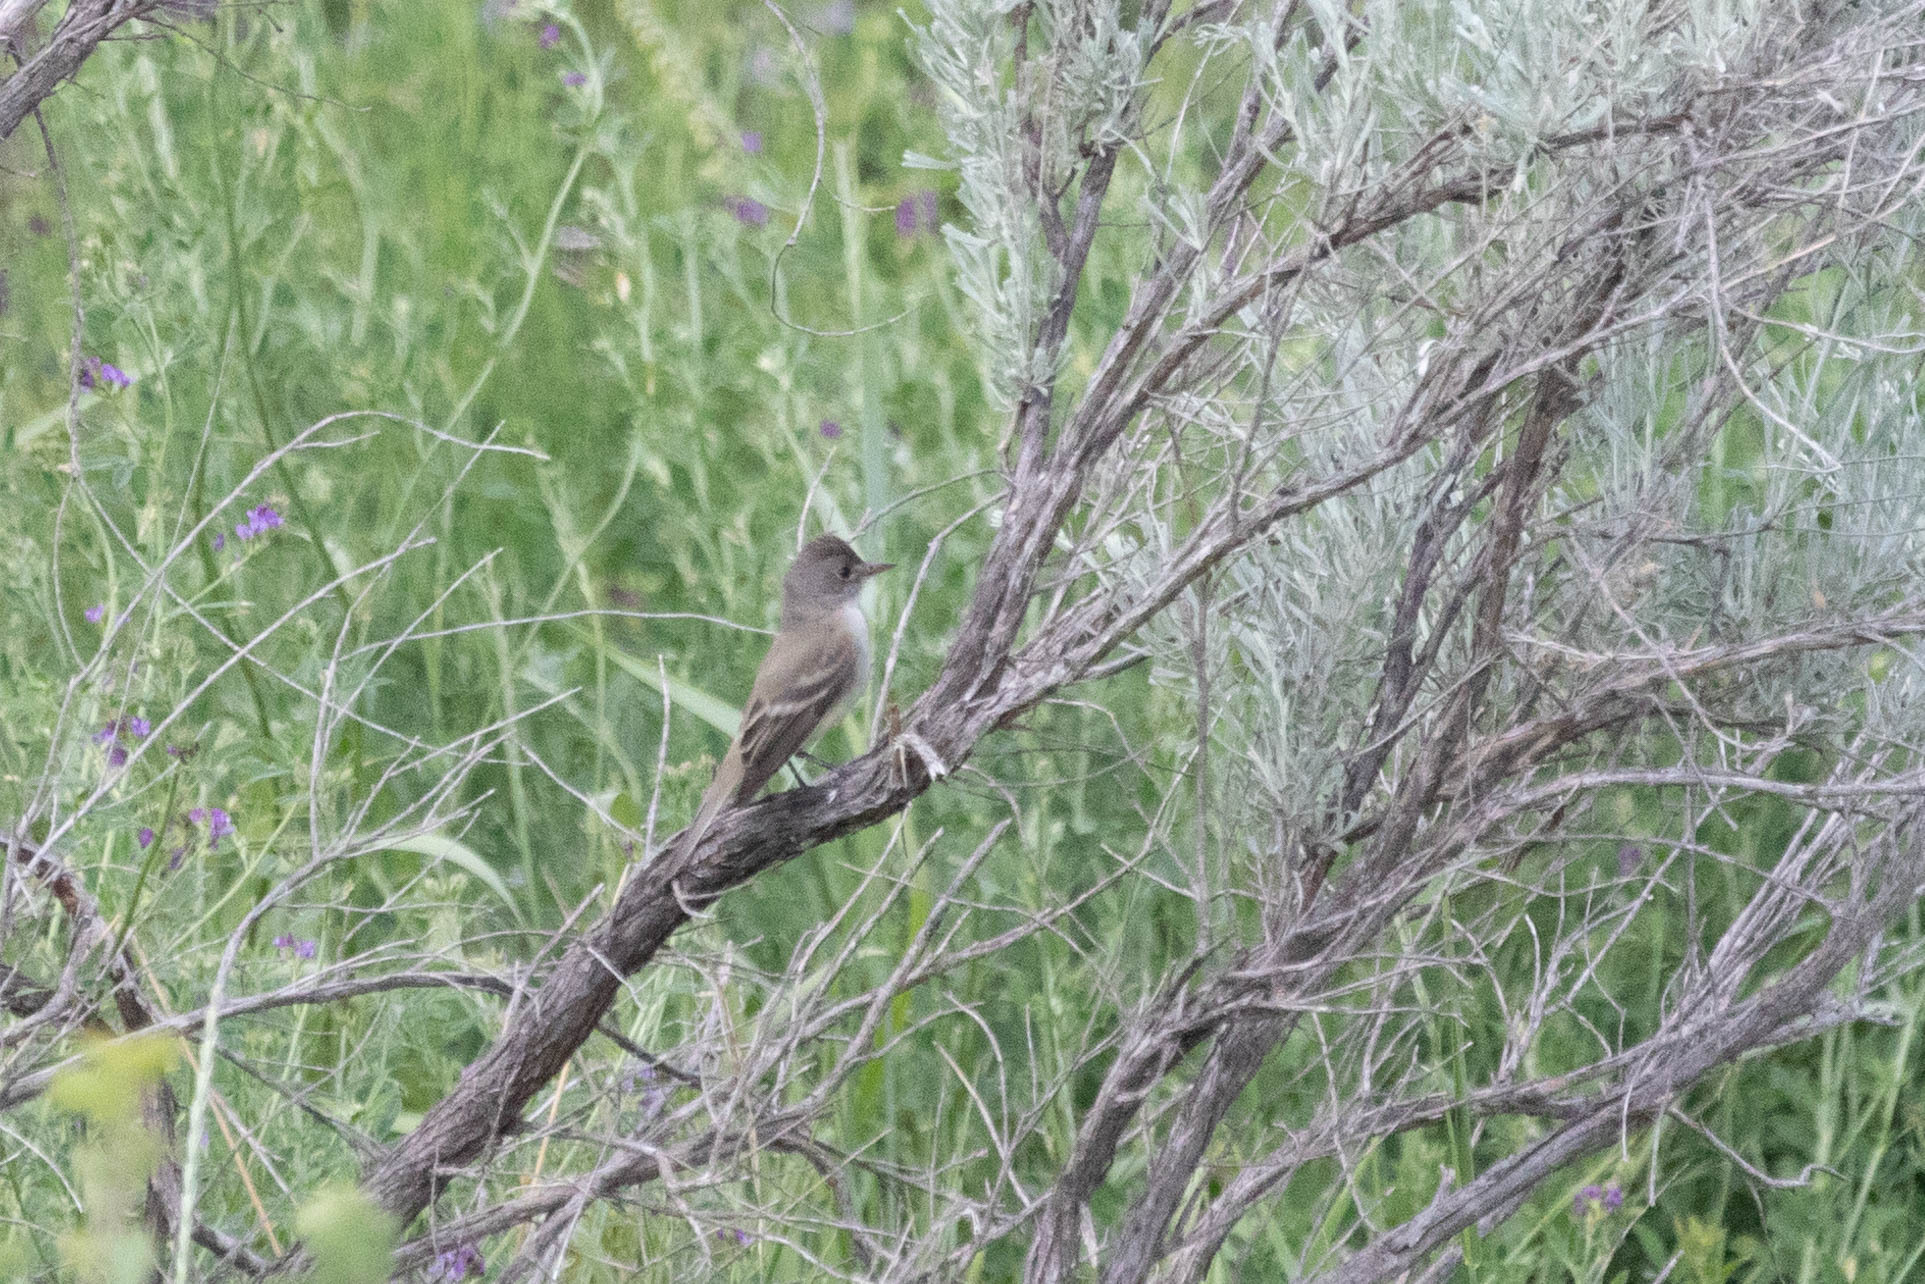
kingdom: Animalia
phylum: Chordata
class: Aves
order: Passeriformes
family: Tyrannidae
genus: Empidonax
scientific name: Empidonax traillii
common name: Willow flycatcher
